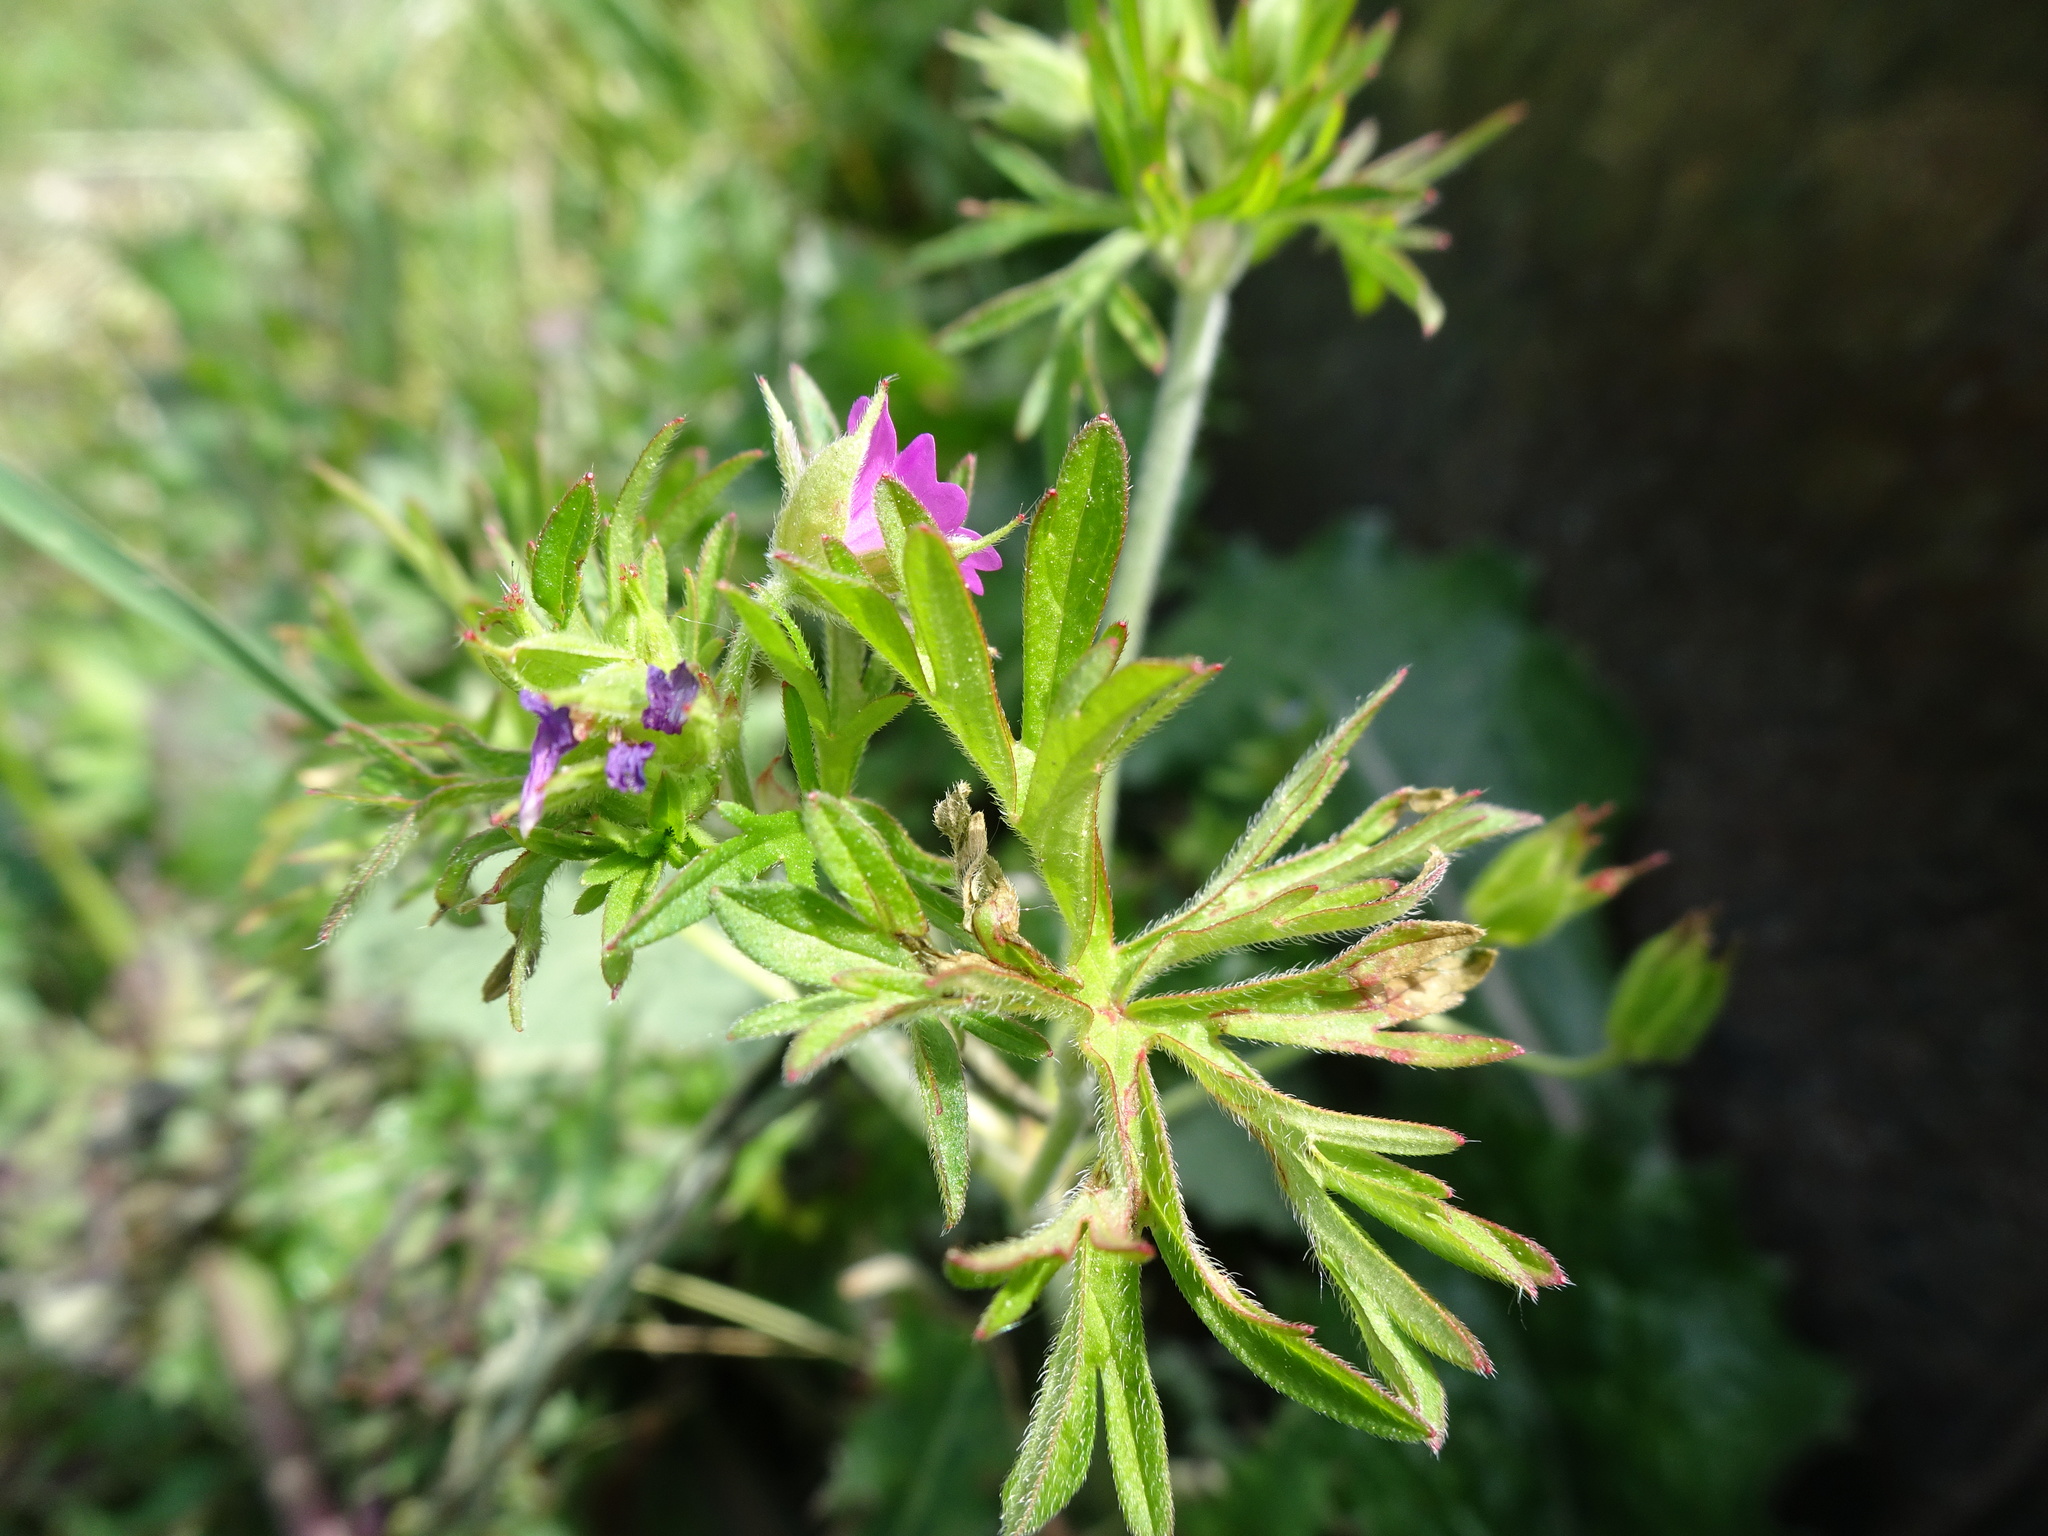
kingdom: Plantae
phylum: Tracheophyta
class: Magnoliopsida
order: Geraniales
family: Geraniaceae
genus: Geranium
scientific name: Geranium dissectum
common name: Cut-leaved crane's-bill
